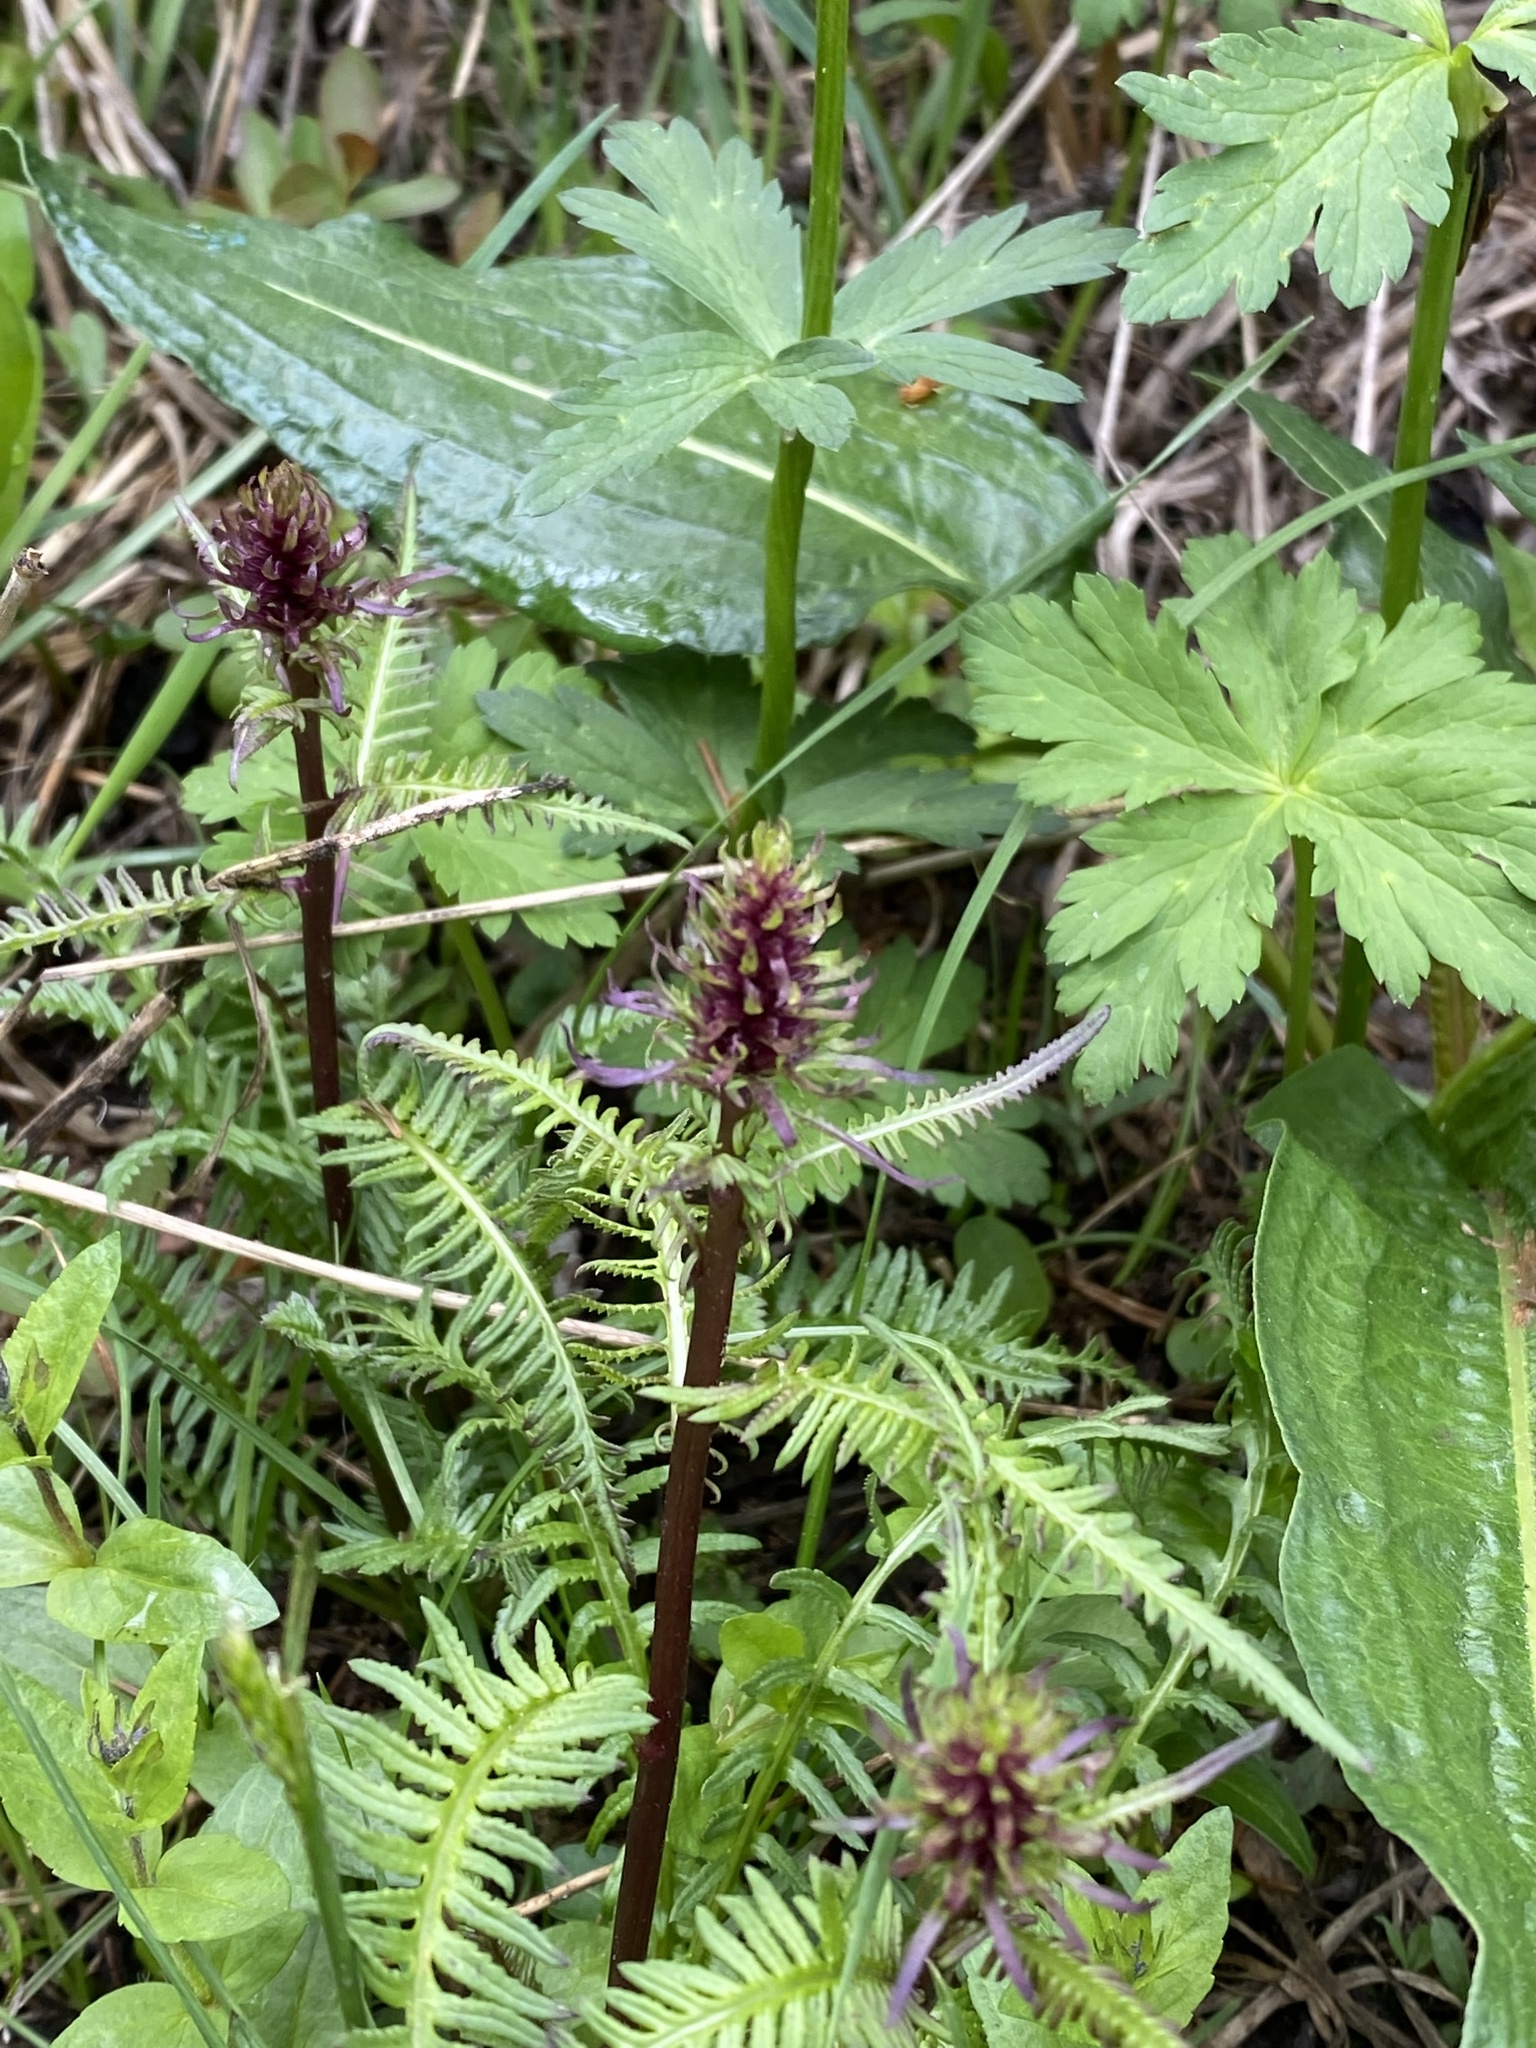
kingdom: Plantae
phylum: Tracheophyta
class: Magnoliopsida
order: Lamiales
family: Orobanchaceae
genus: Pedicularis
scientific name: Pedicularis groenlandica
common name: Elephant's-head
